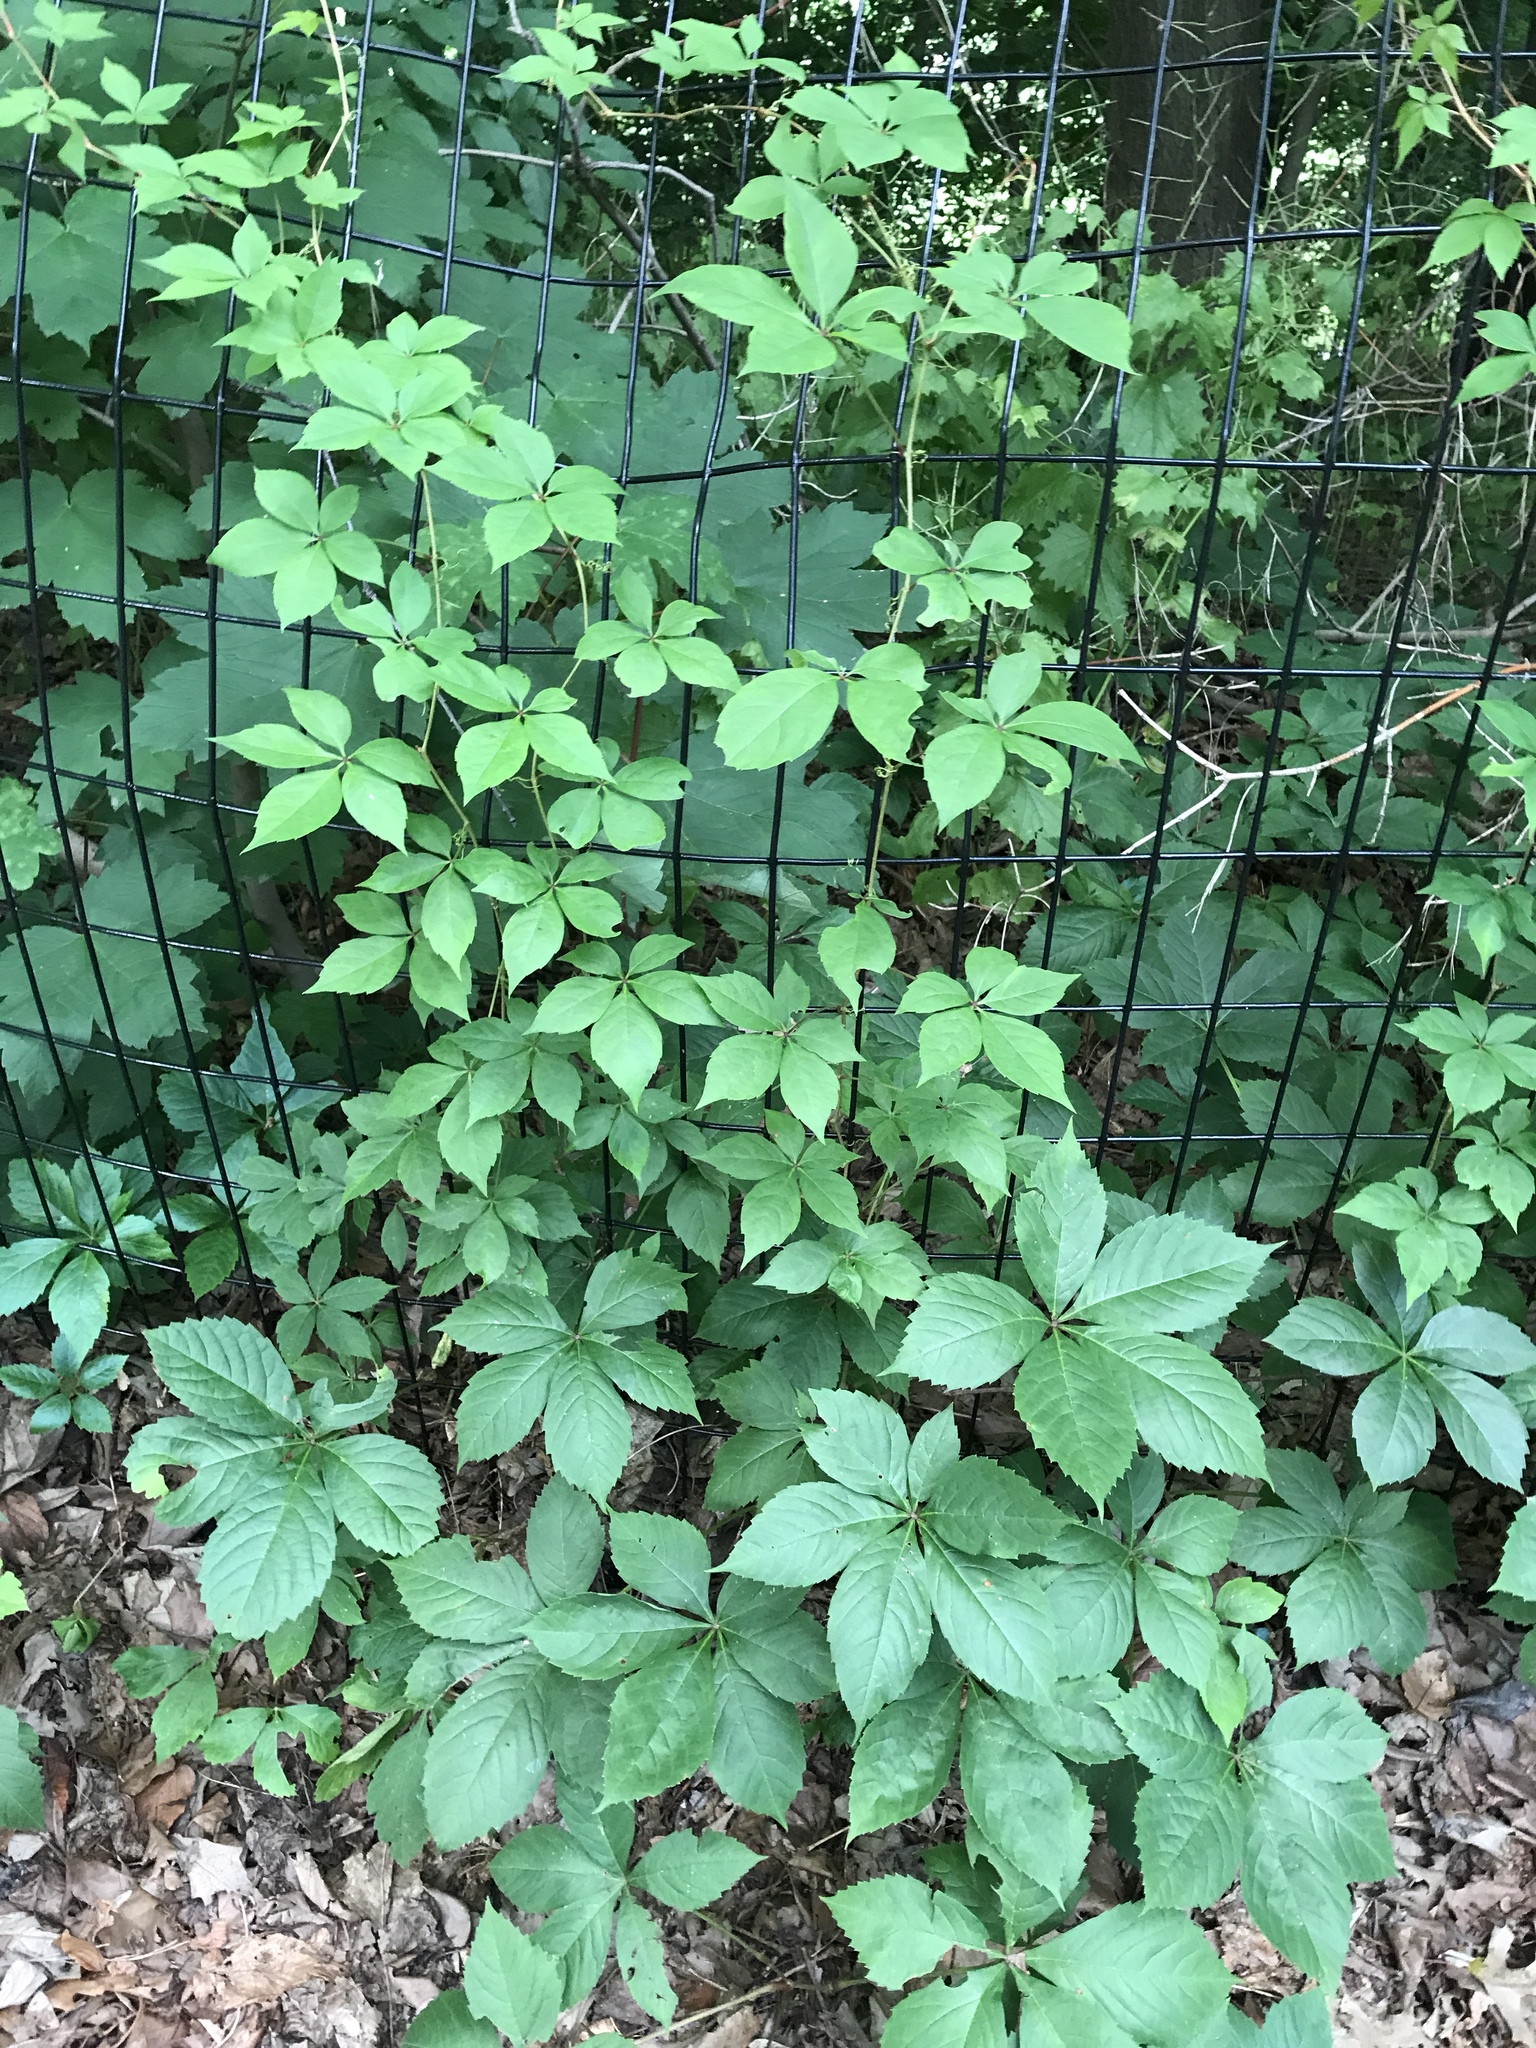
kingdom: Plantae
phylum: Tracheophyta
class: Magnoliopsida
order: Vitales
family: Vitaceae
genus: Parthenocissus
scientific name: Parthenocissus quinquefolia
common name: Virginia-creeper
